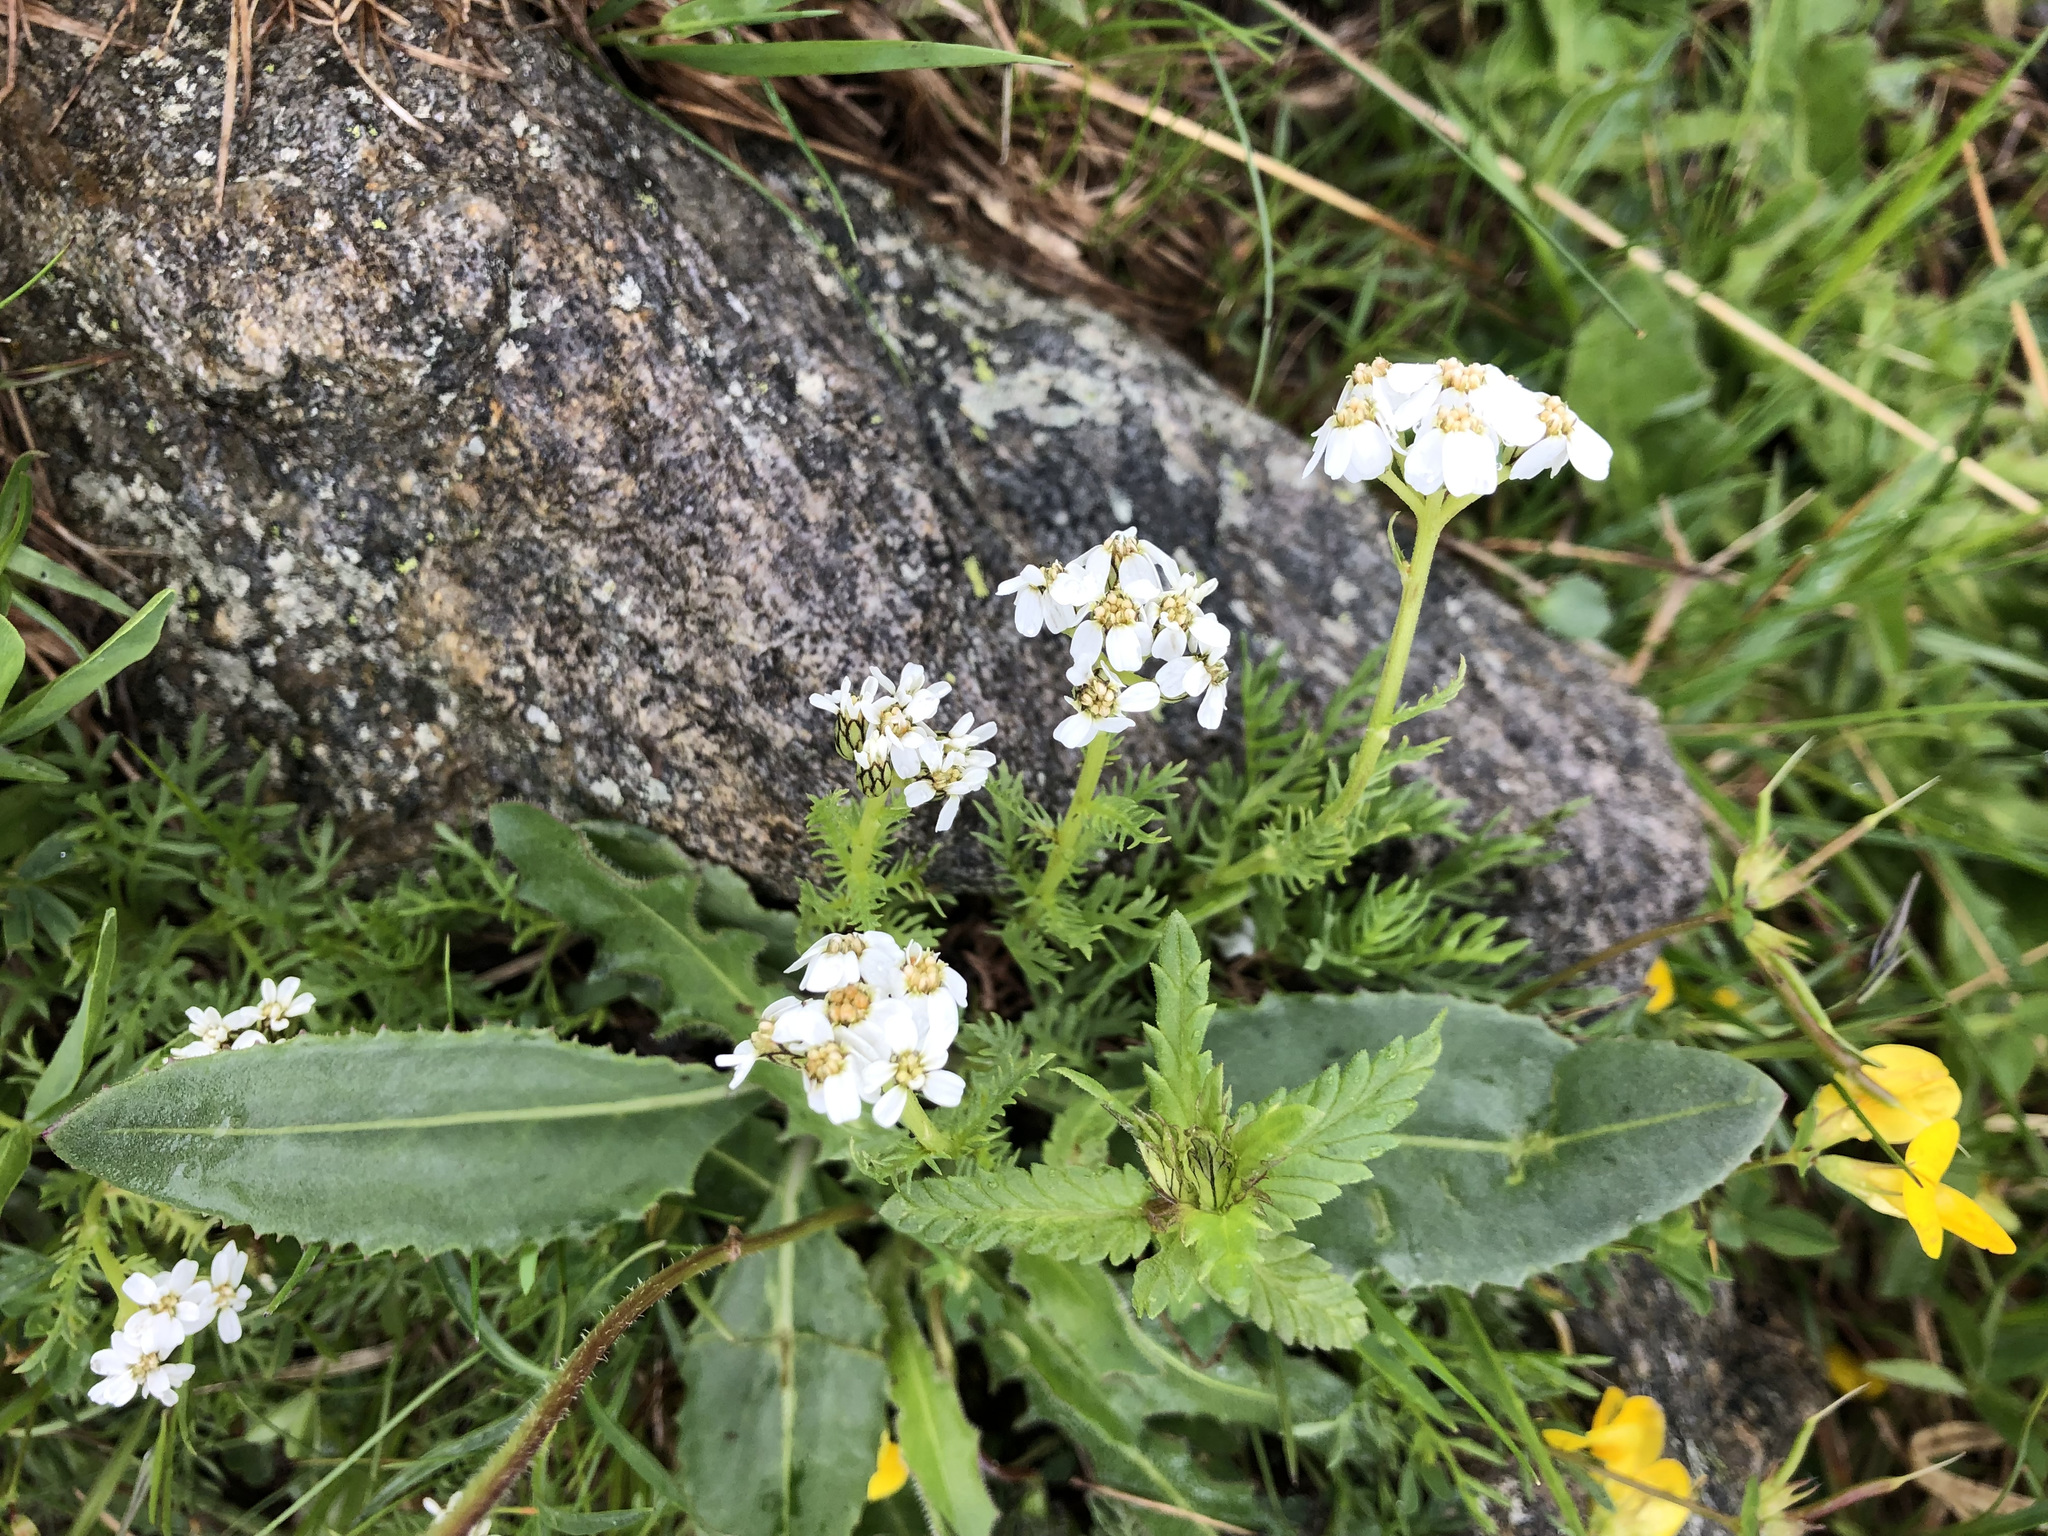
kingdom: Plantae
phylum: Tracheophyta
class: Magnoliopsida
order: Asterales
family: Asteraceae
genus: Achillea
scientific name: Achillea erba-rotta
